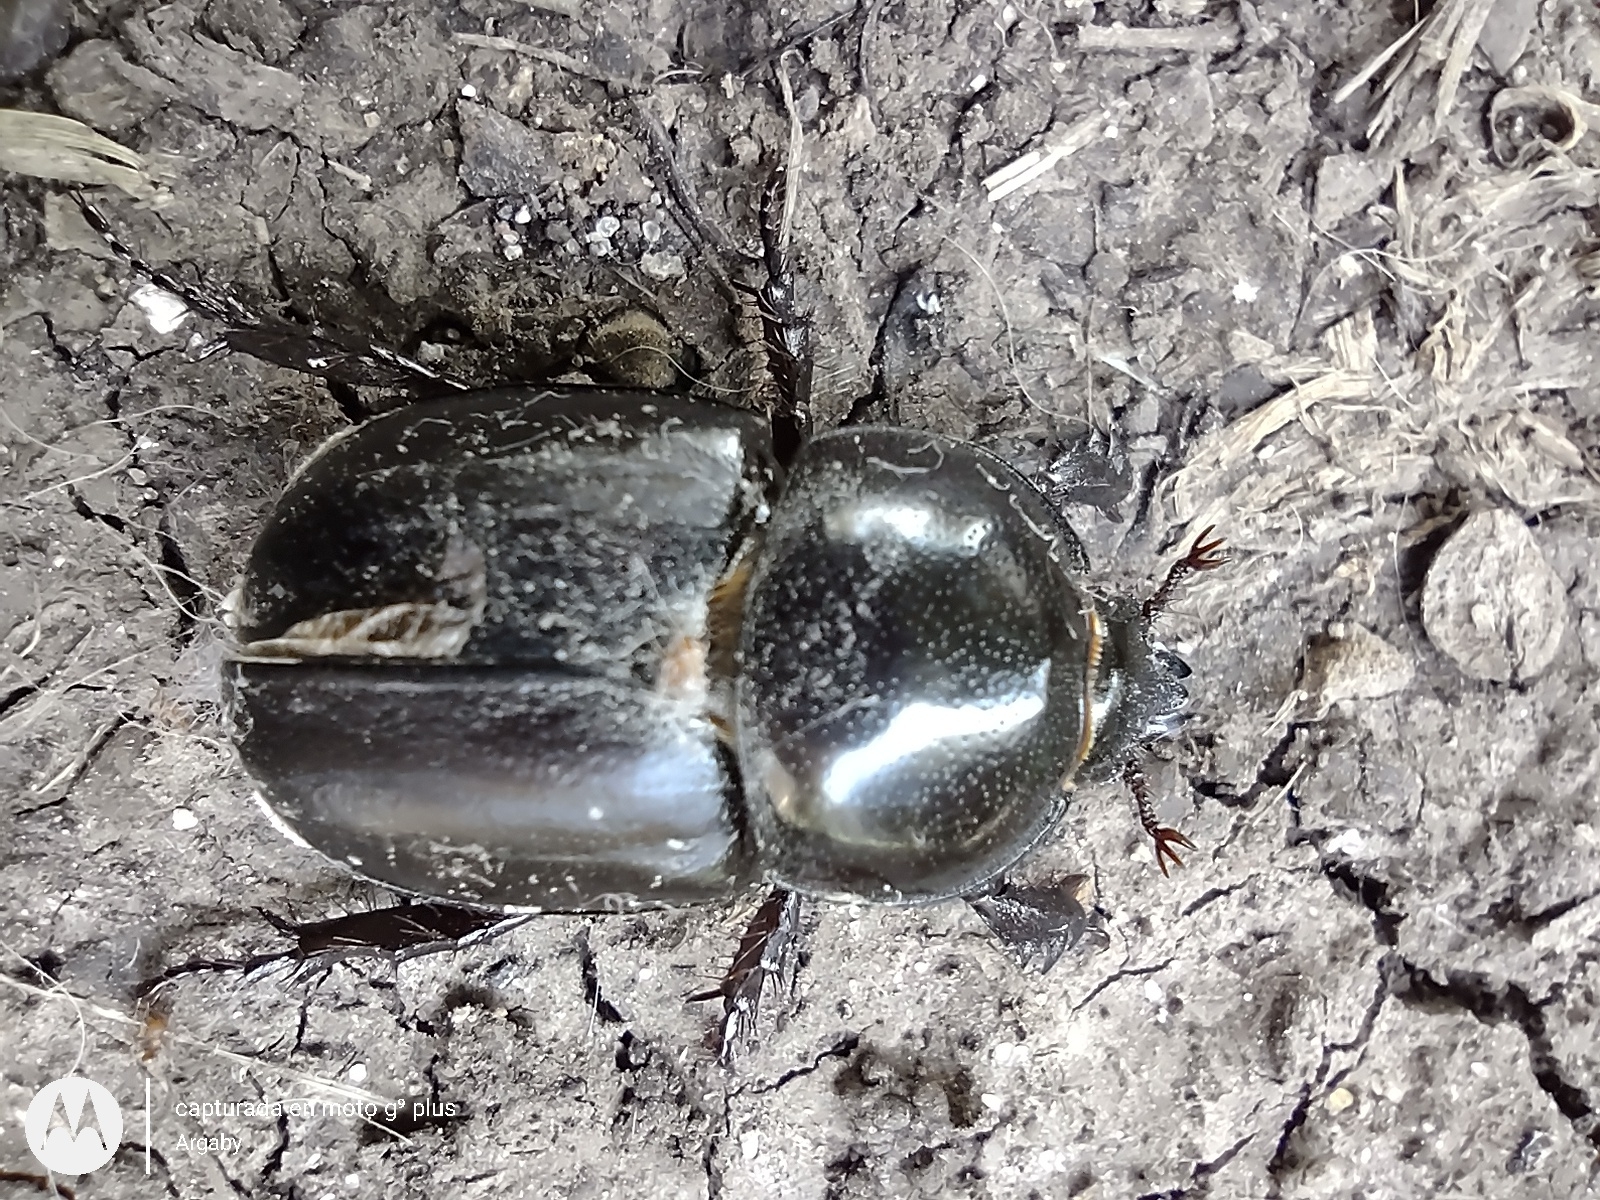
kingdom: Animalia
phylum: Arthropoda
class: Insecta
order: Coleoptera
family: Scarabaeidae
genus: Diloboderus
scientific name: Diloboderus abderus
